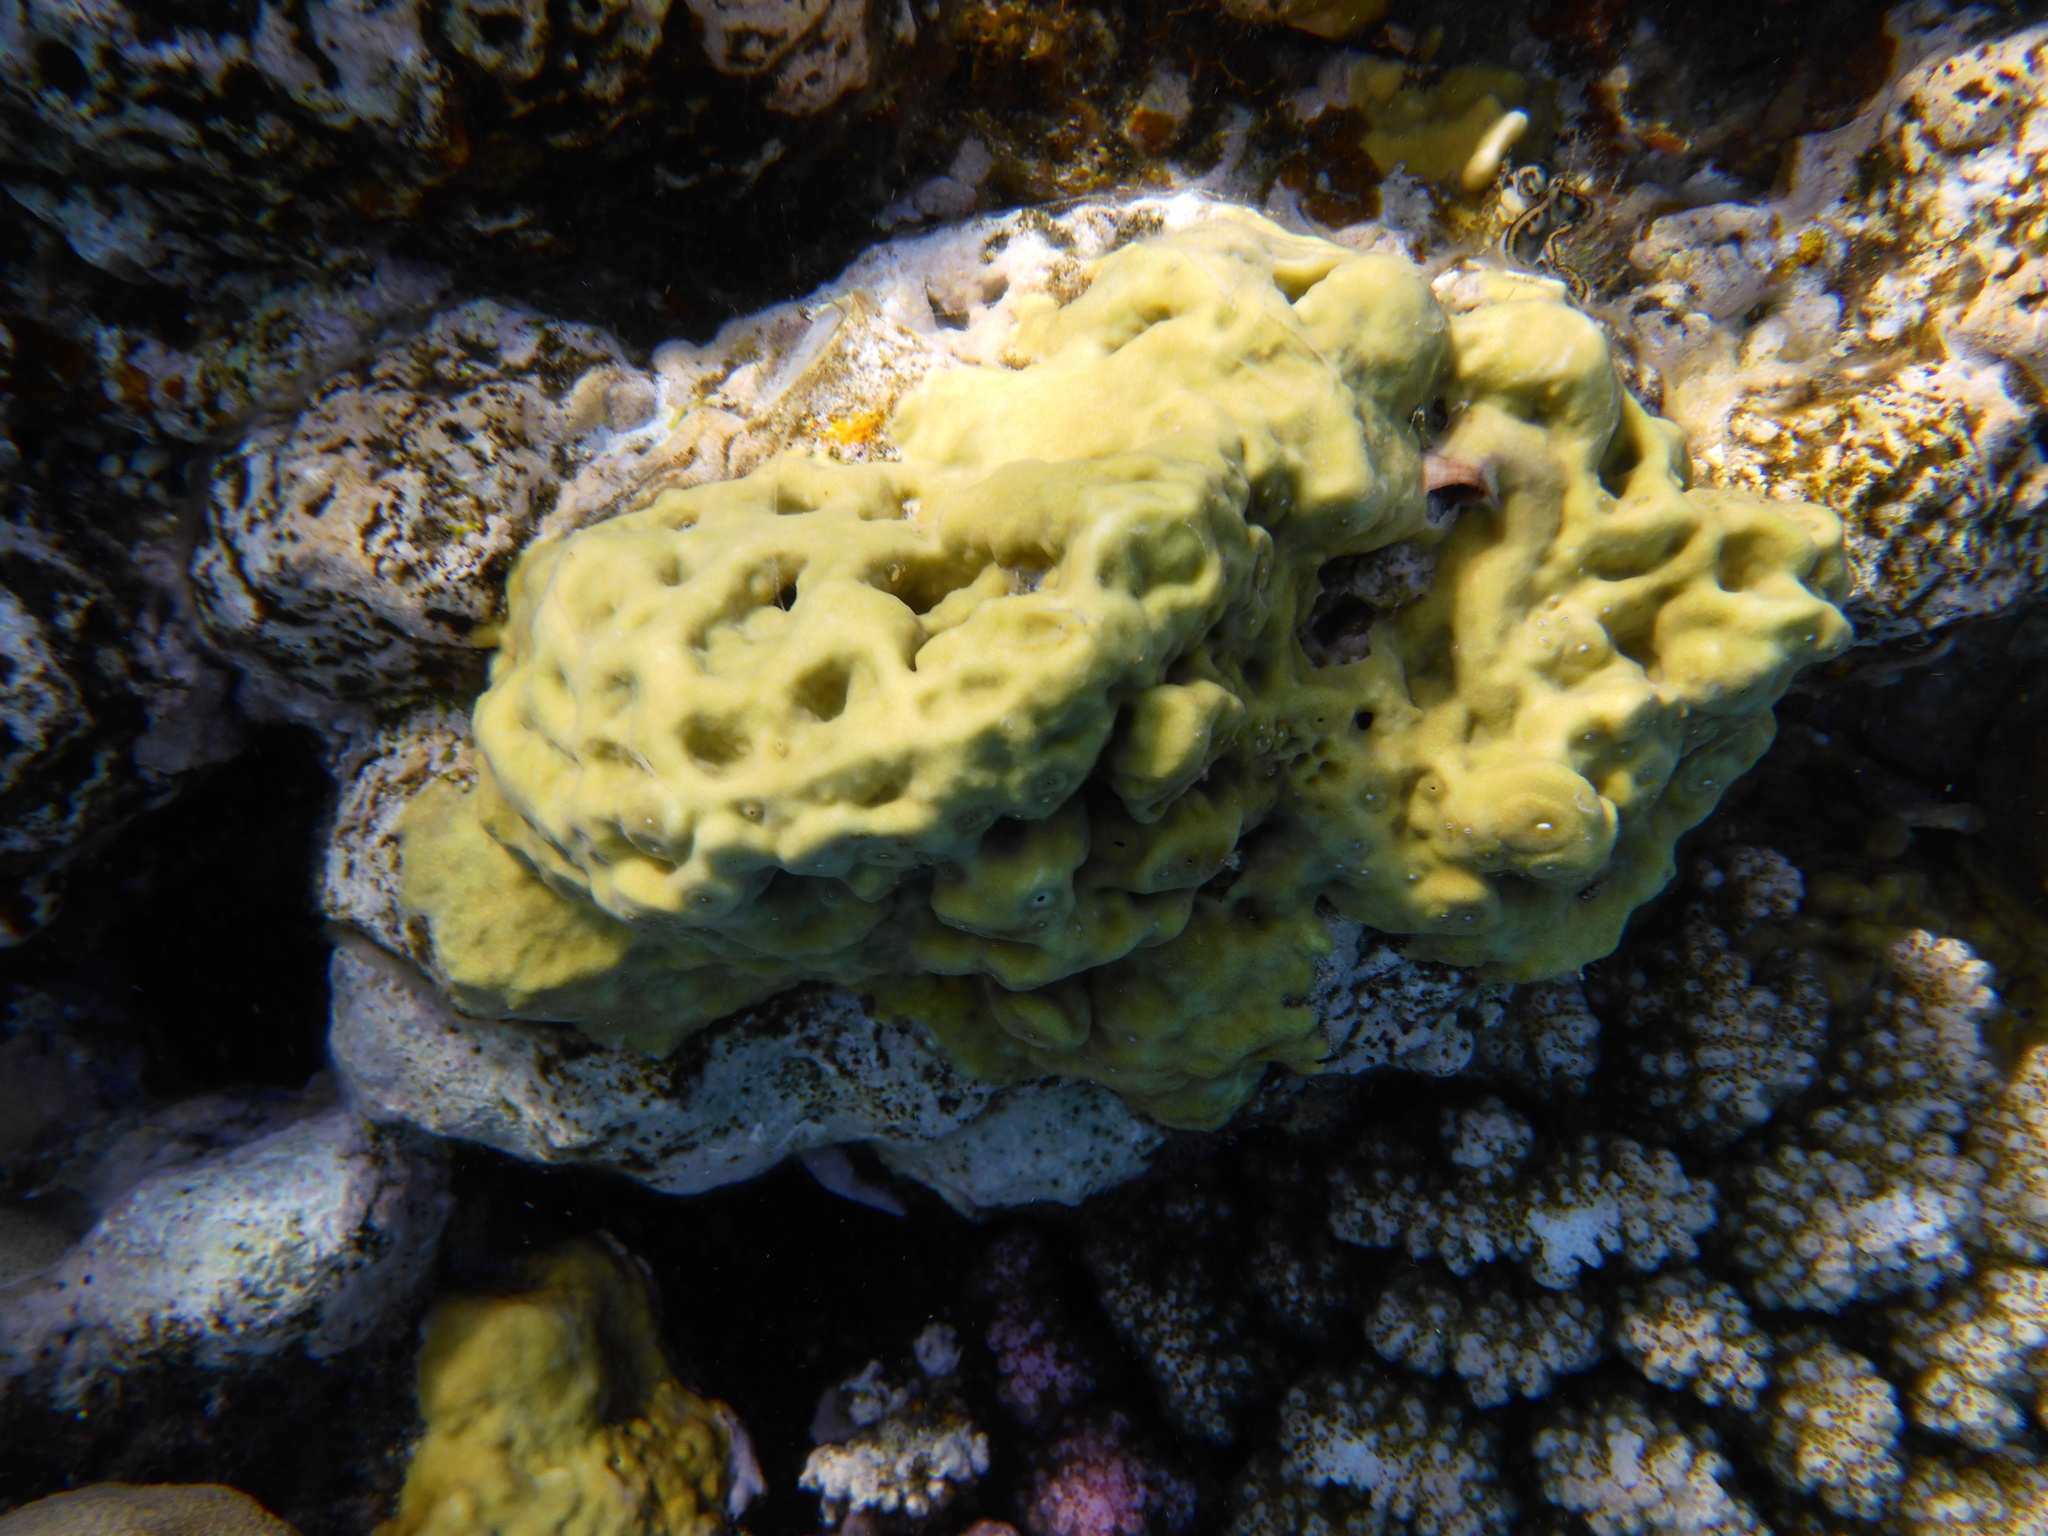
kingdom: Animalia
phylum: Cnidaria
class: Hydrozoa
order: Anthoathecata
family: Milleporidae
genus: Millepora
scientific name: Millepora exaesa
